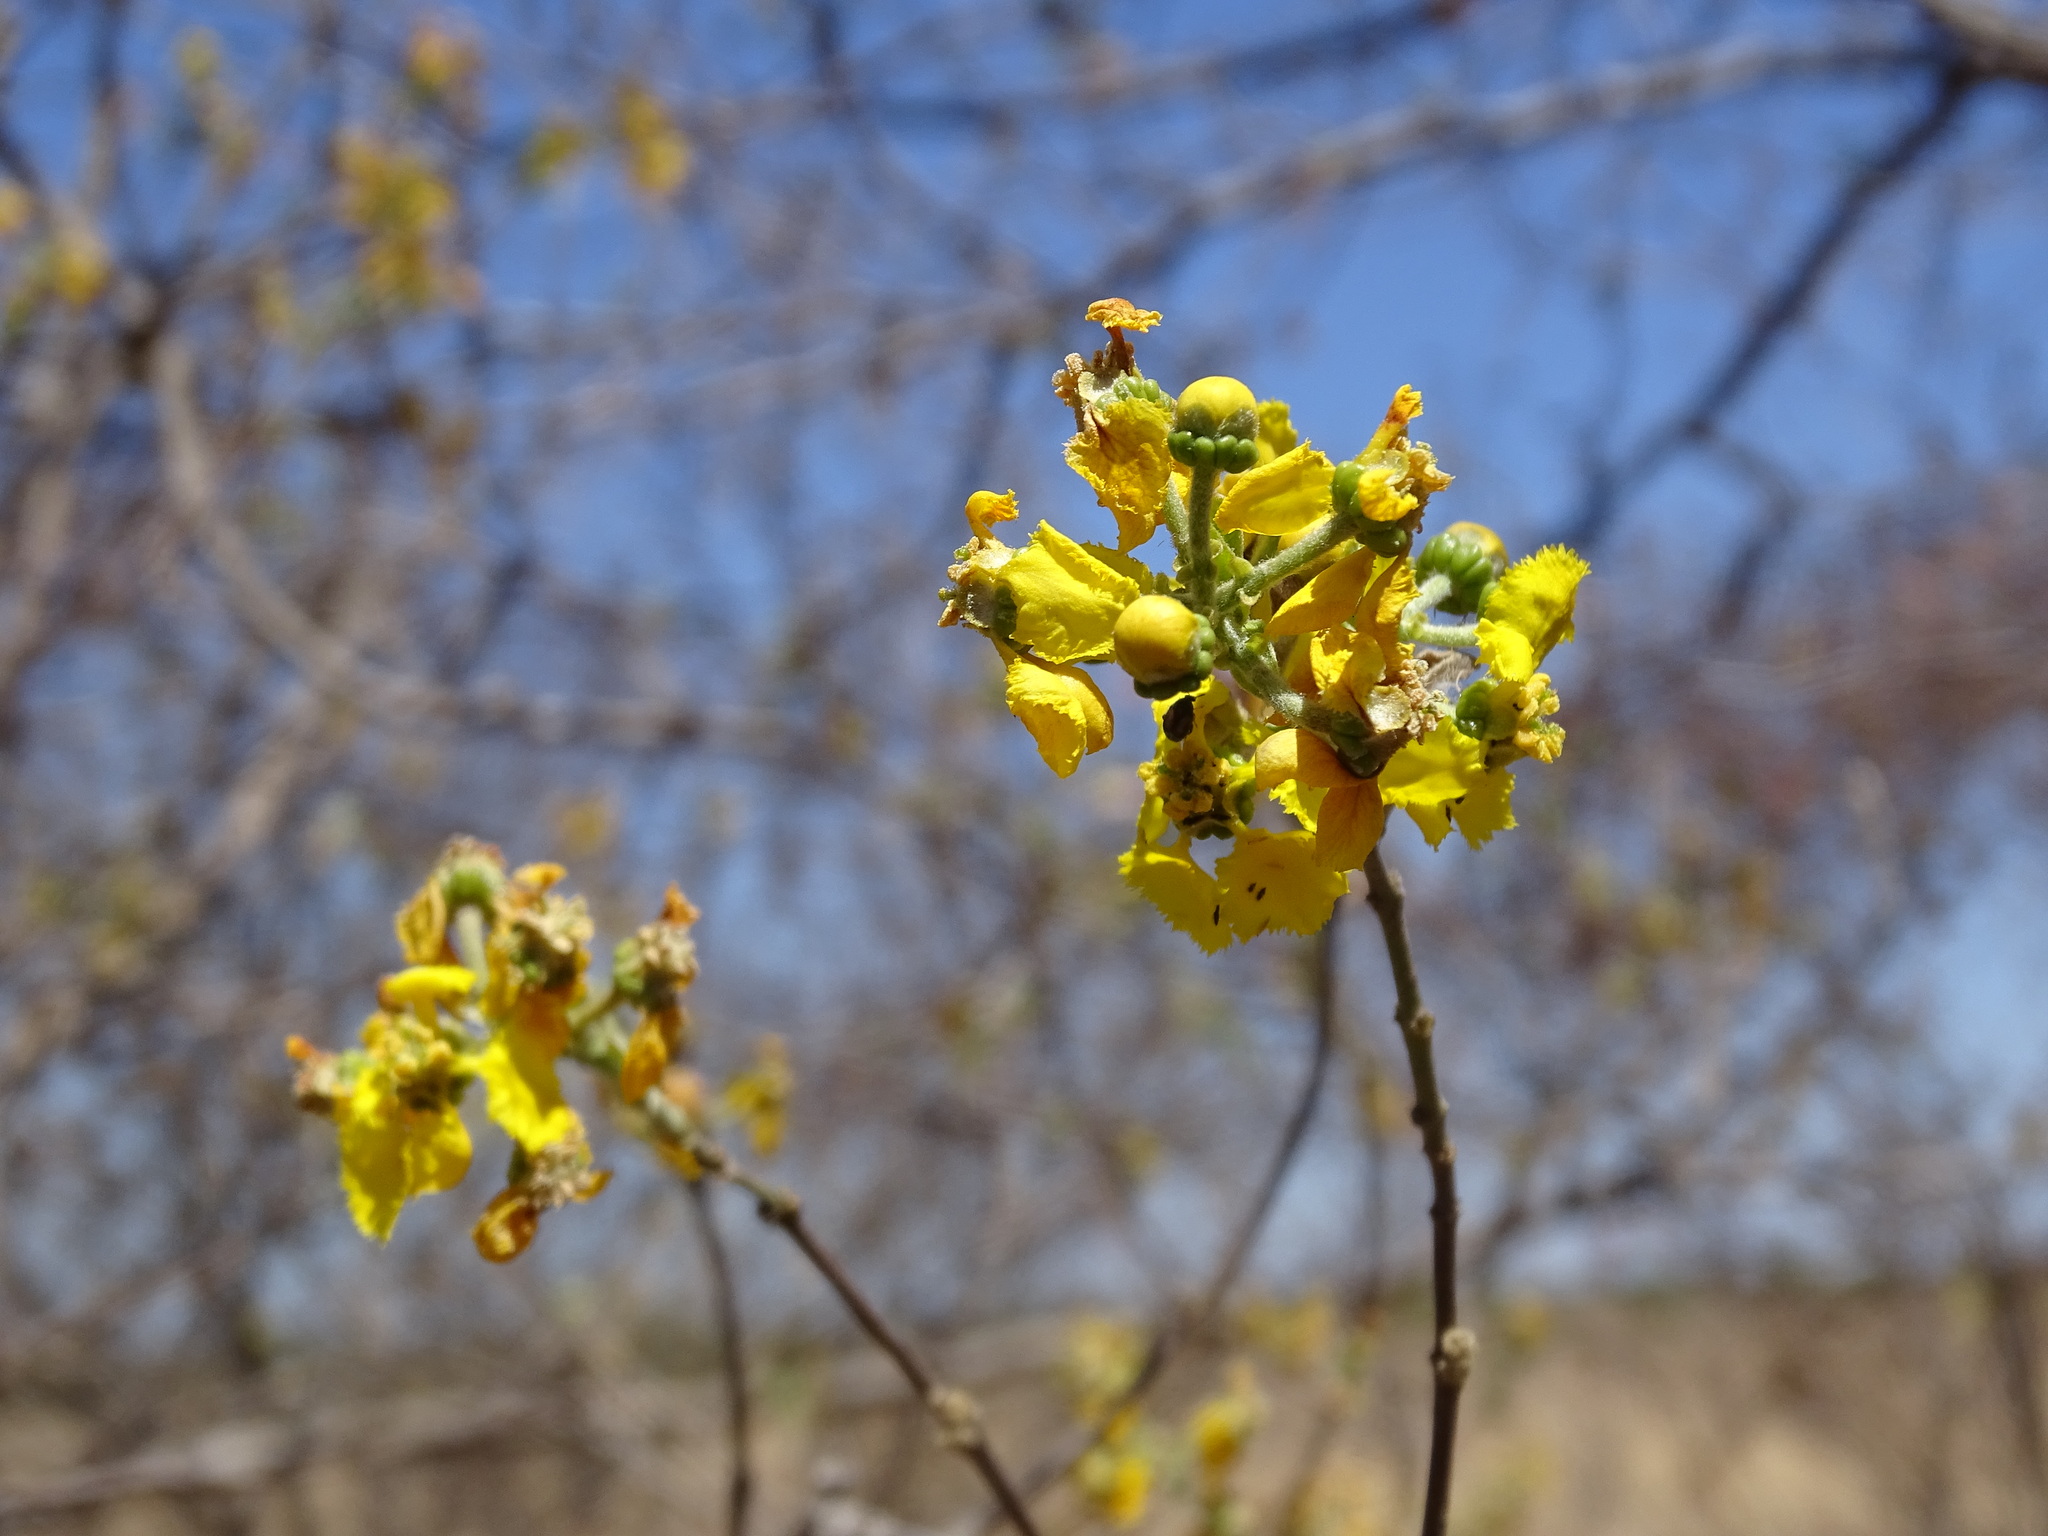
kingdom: Plantae
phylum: Tracheophyta
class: Magnoliopsida
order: Malpighiales
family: Malpighiaceae
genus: Callaeum
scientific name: Callaeum macropterum
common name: Mexican butterfly-vine
